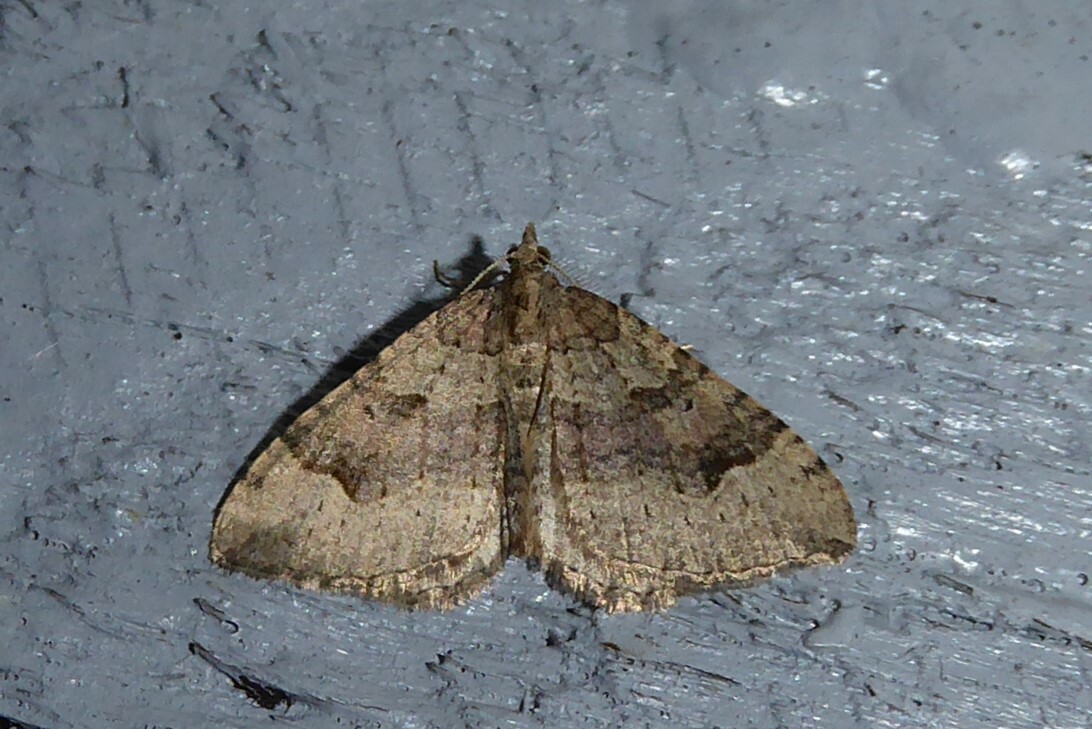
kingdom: Animalia
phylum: Arthropoda
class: Insecta
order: Lepidoptera
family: Geometridae
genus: Epyaxa
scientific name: Epyaxa rosearia
